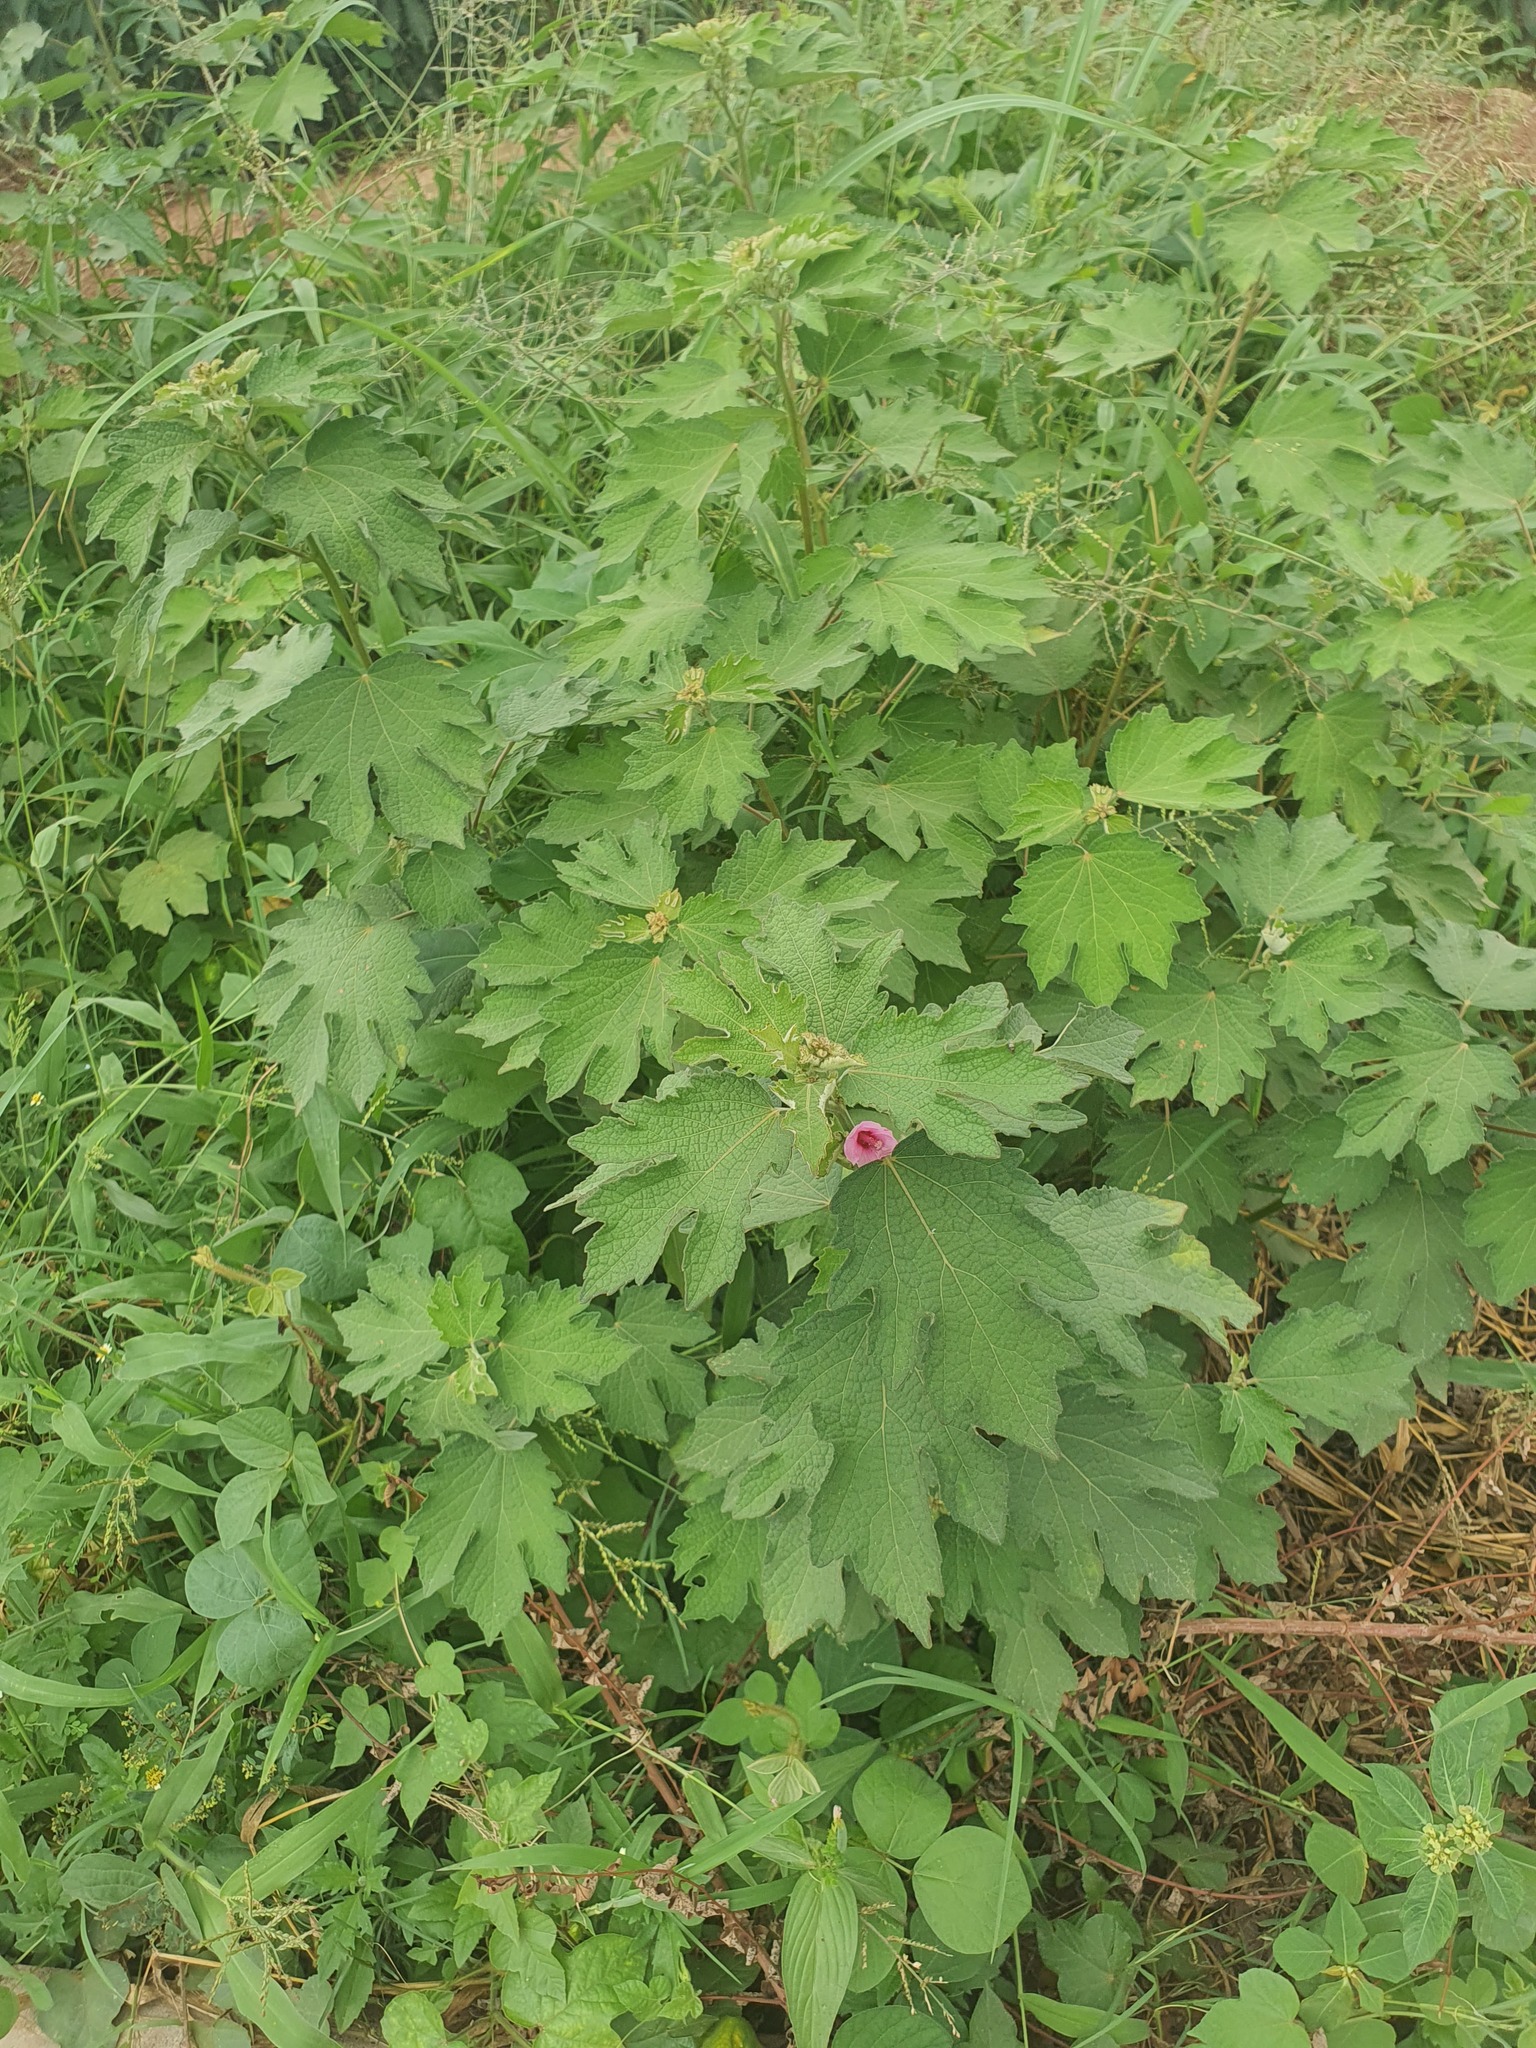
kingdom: Plantae
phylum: Tracheophyta
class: Magnoliopsida
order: Malvales
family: Malvaceae
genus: Urena
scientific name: Urena lobata
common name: Caesarweed
